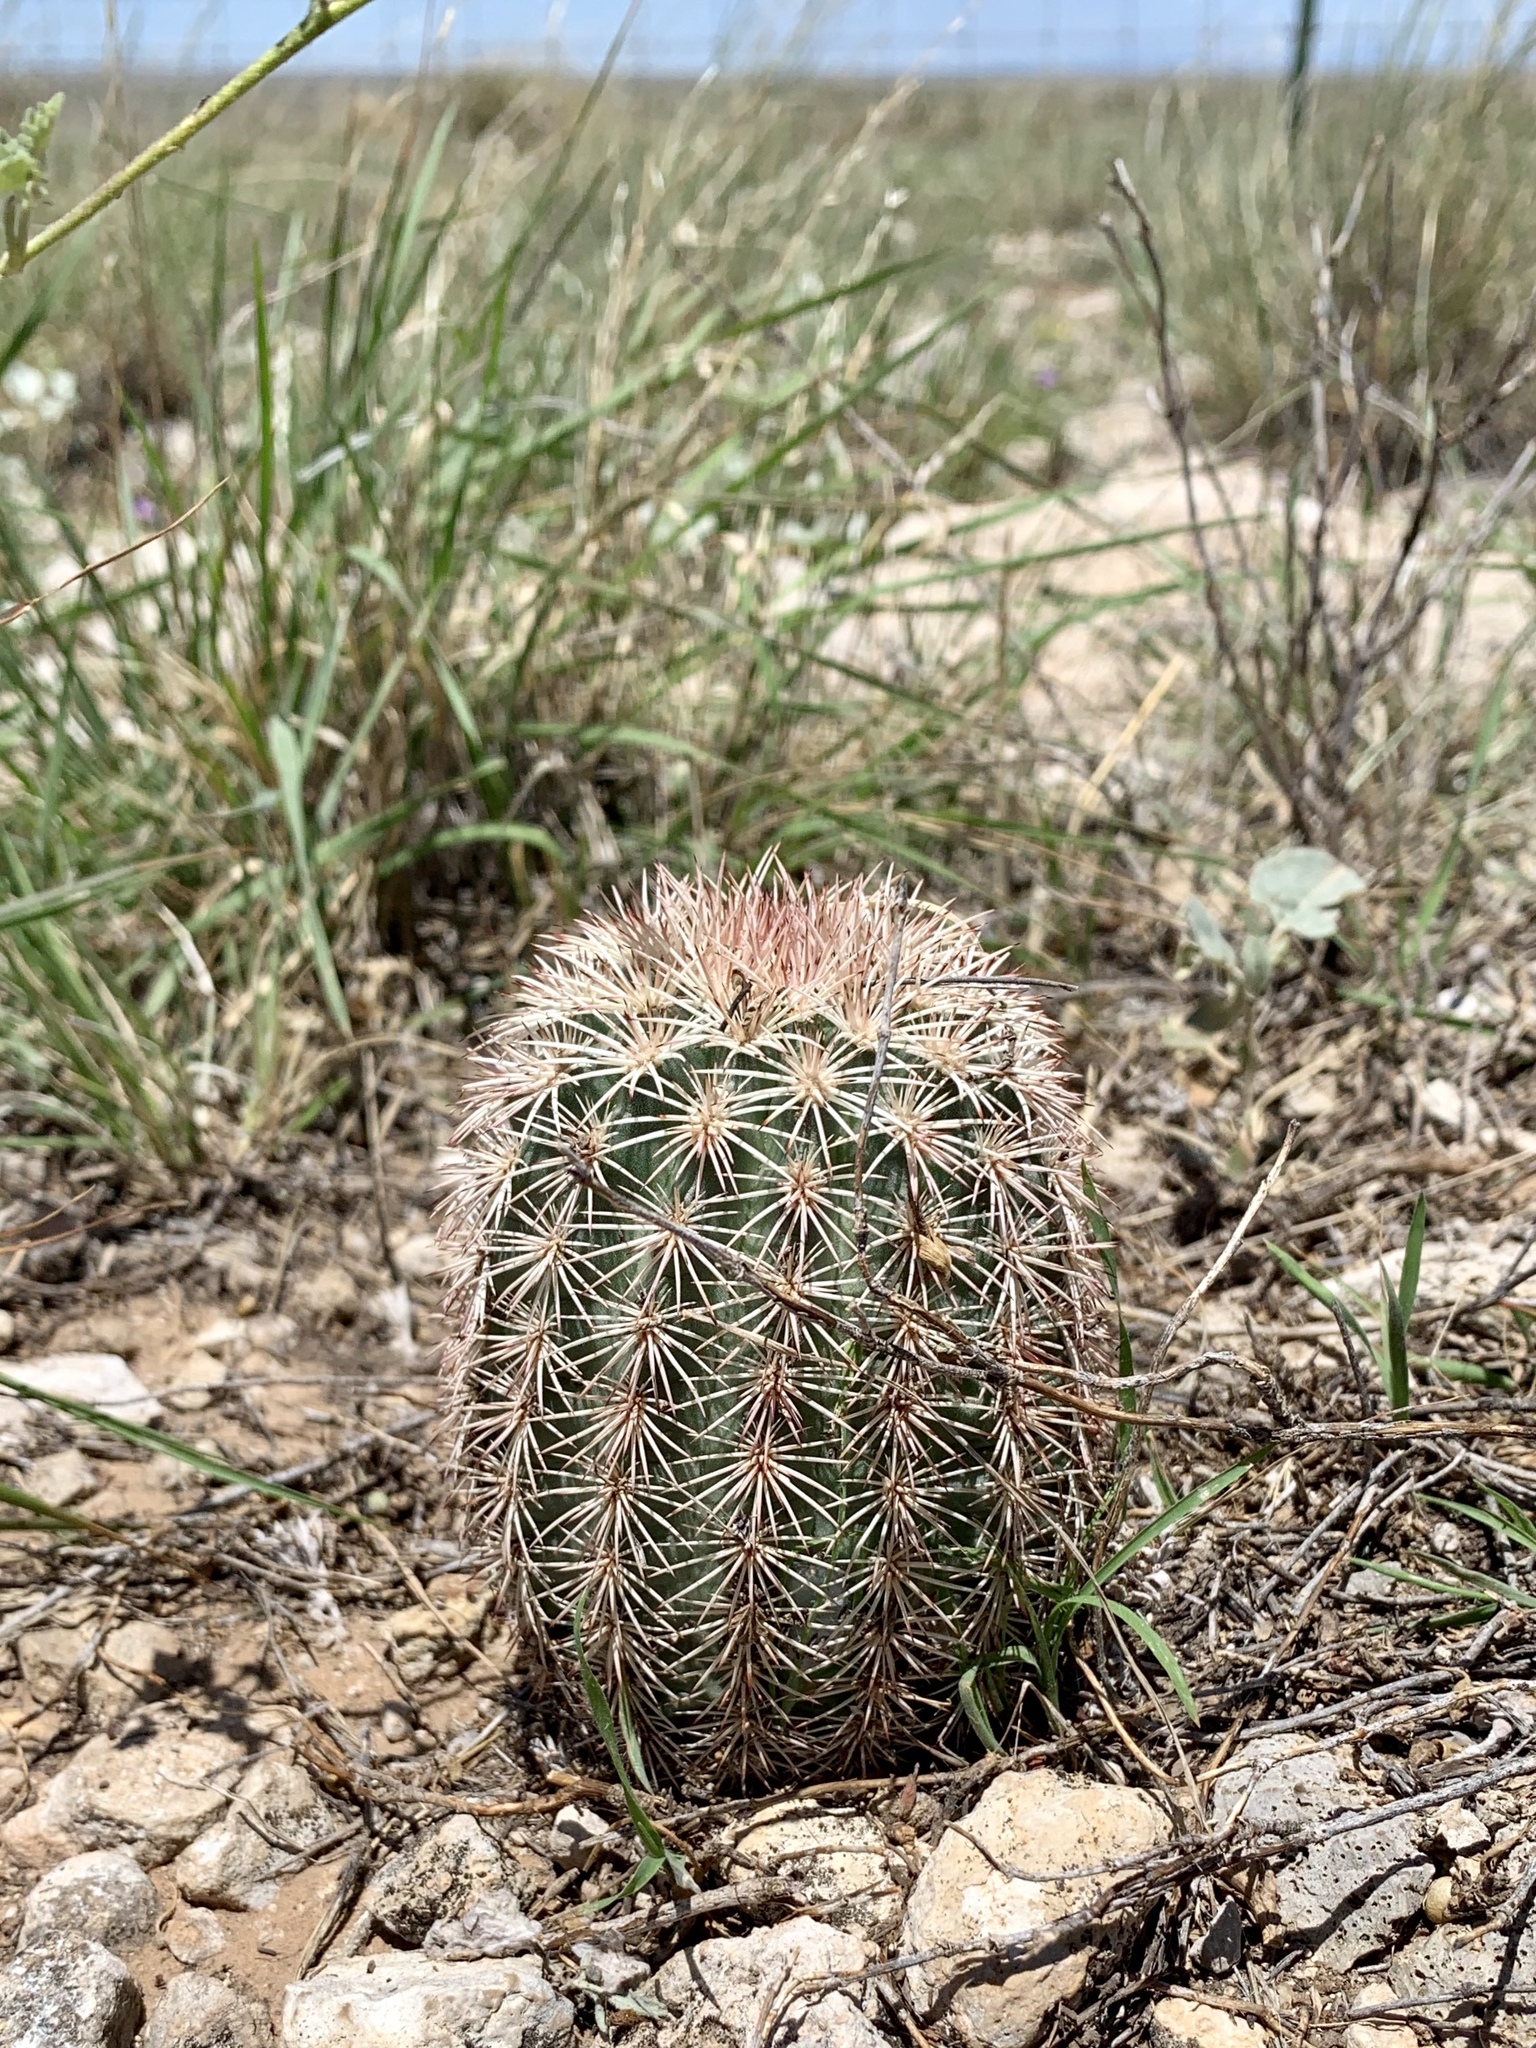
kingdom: Plantae
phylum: Tracheophyta
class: Magnoliopsida
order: Caryophyllales
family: Cactaceae
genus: Echinocereus
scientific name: Echinocereus dasyacanthus
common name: Spiny hedgehog cactus
